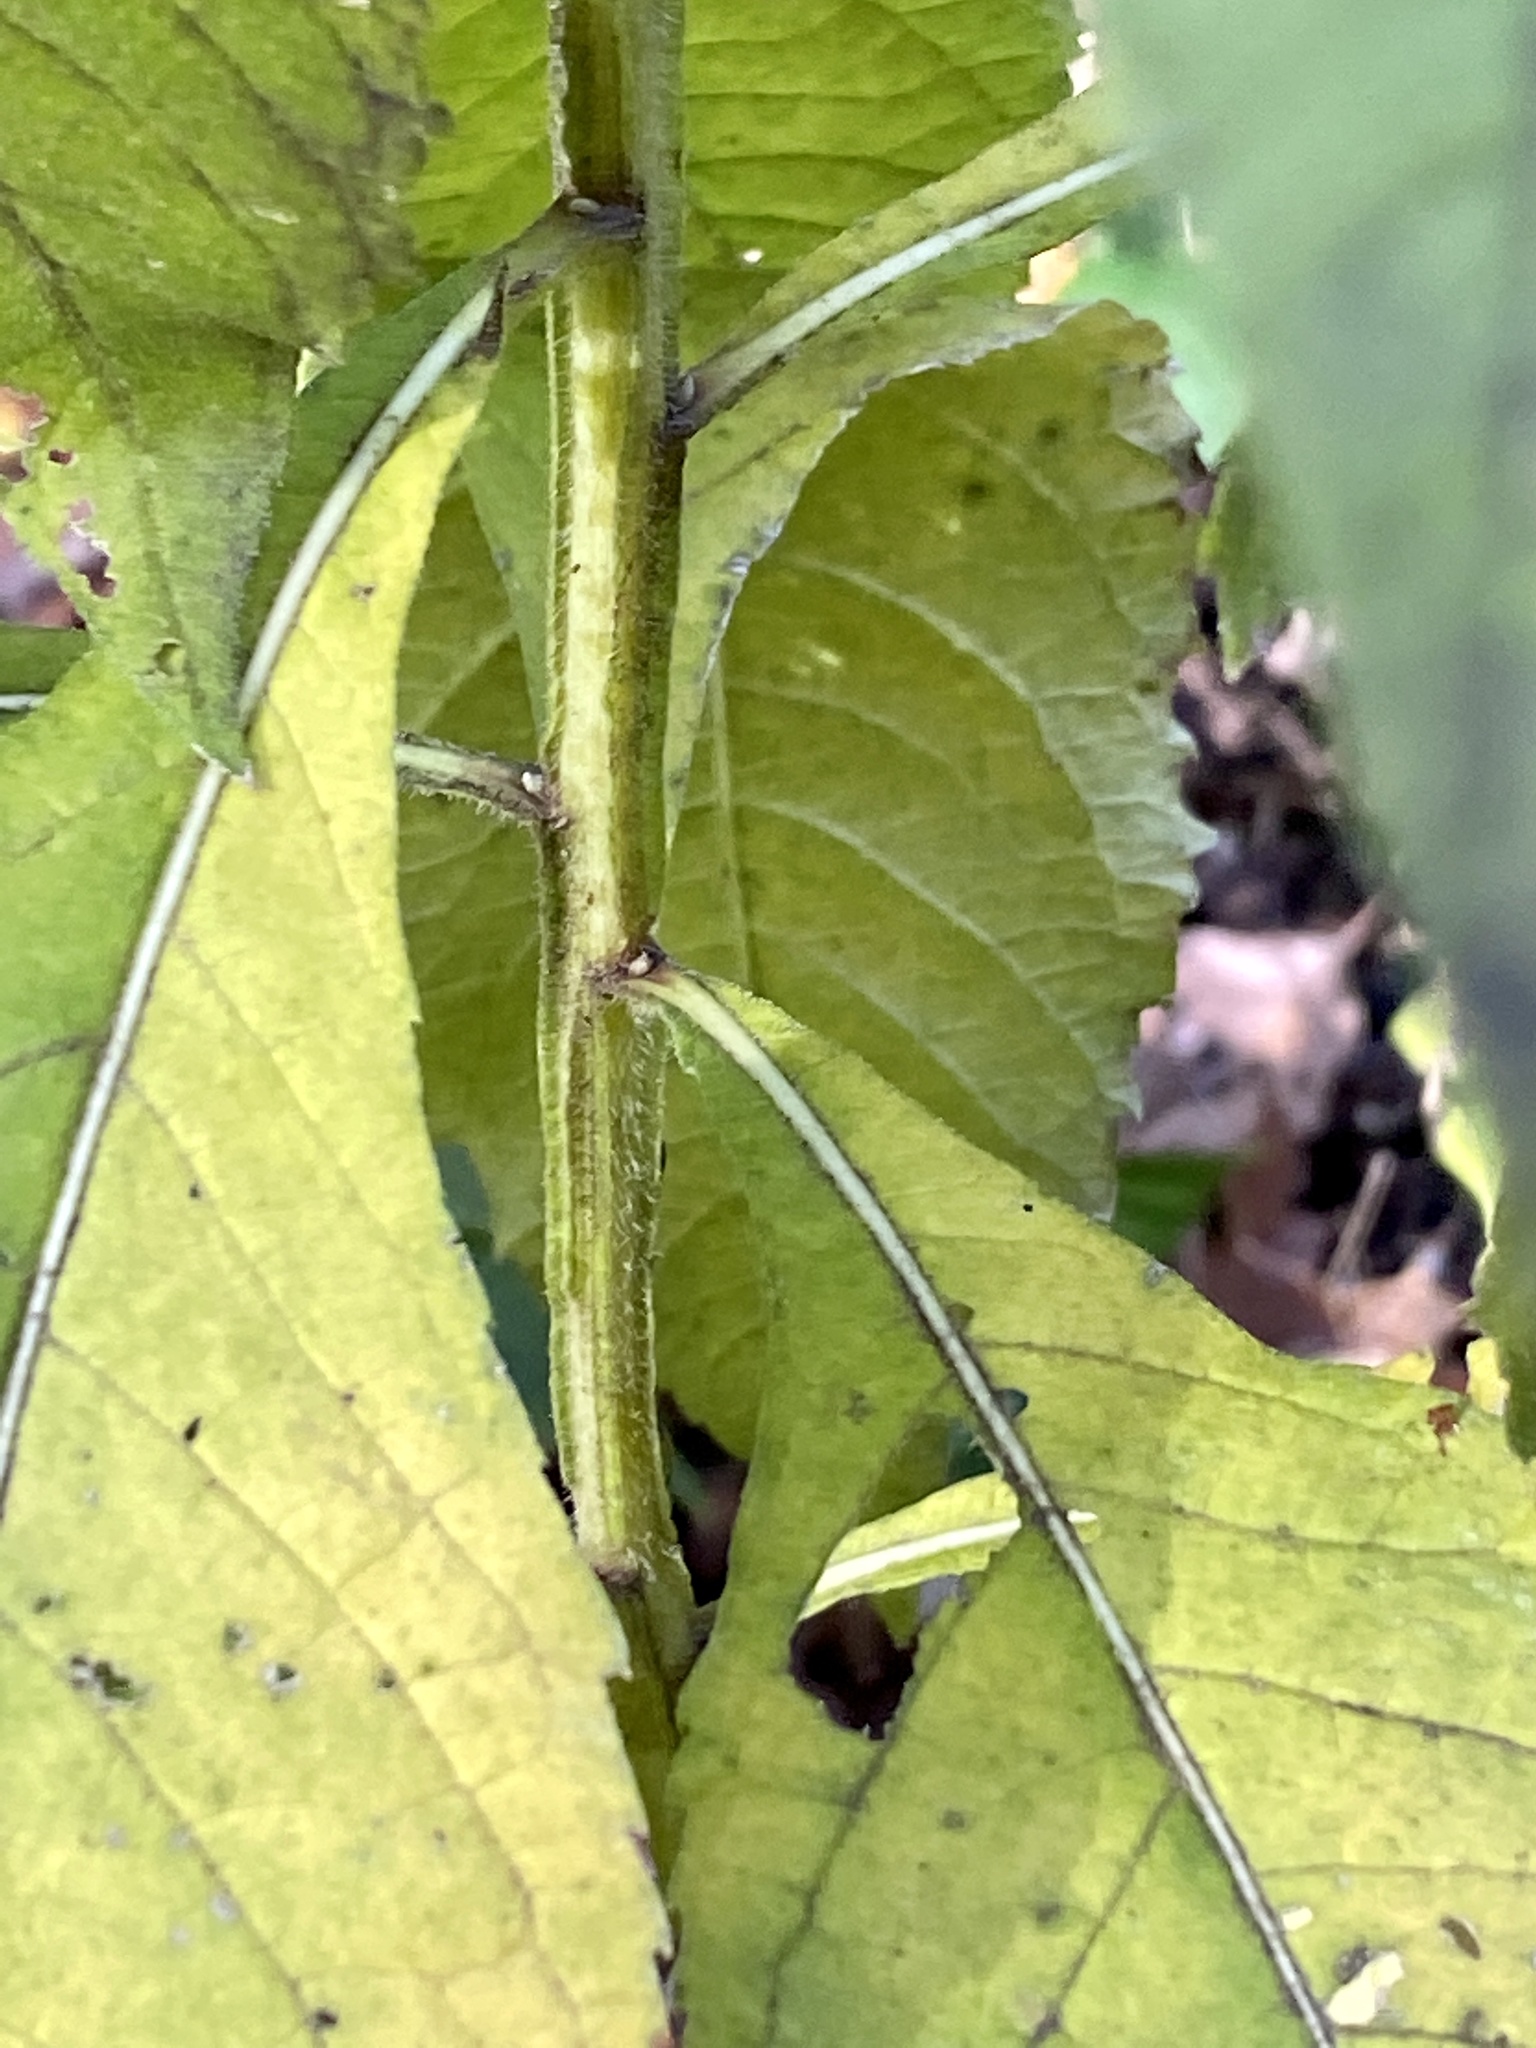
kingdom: Plantae
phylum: Tracheophyta
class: Magnoliopsida
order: Asterales
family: Asteraceae
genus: Verbesina
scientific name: Verbesina alternifolia
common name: Wingstem
